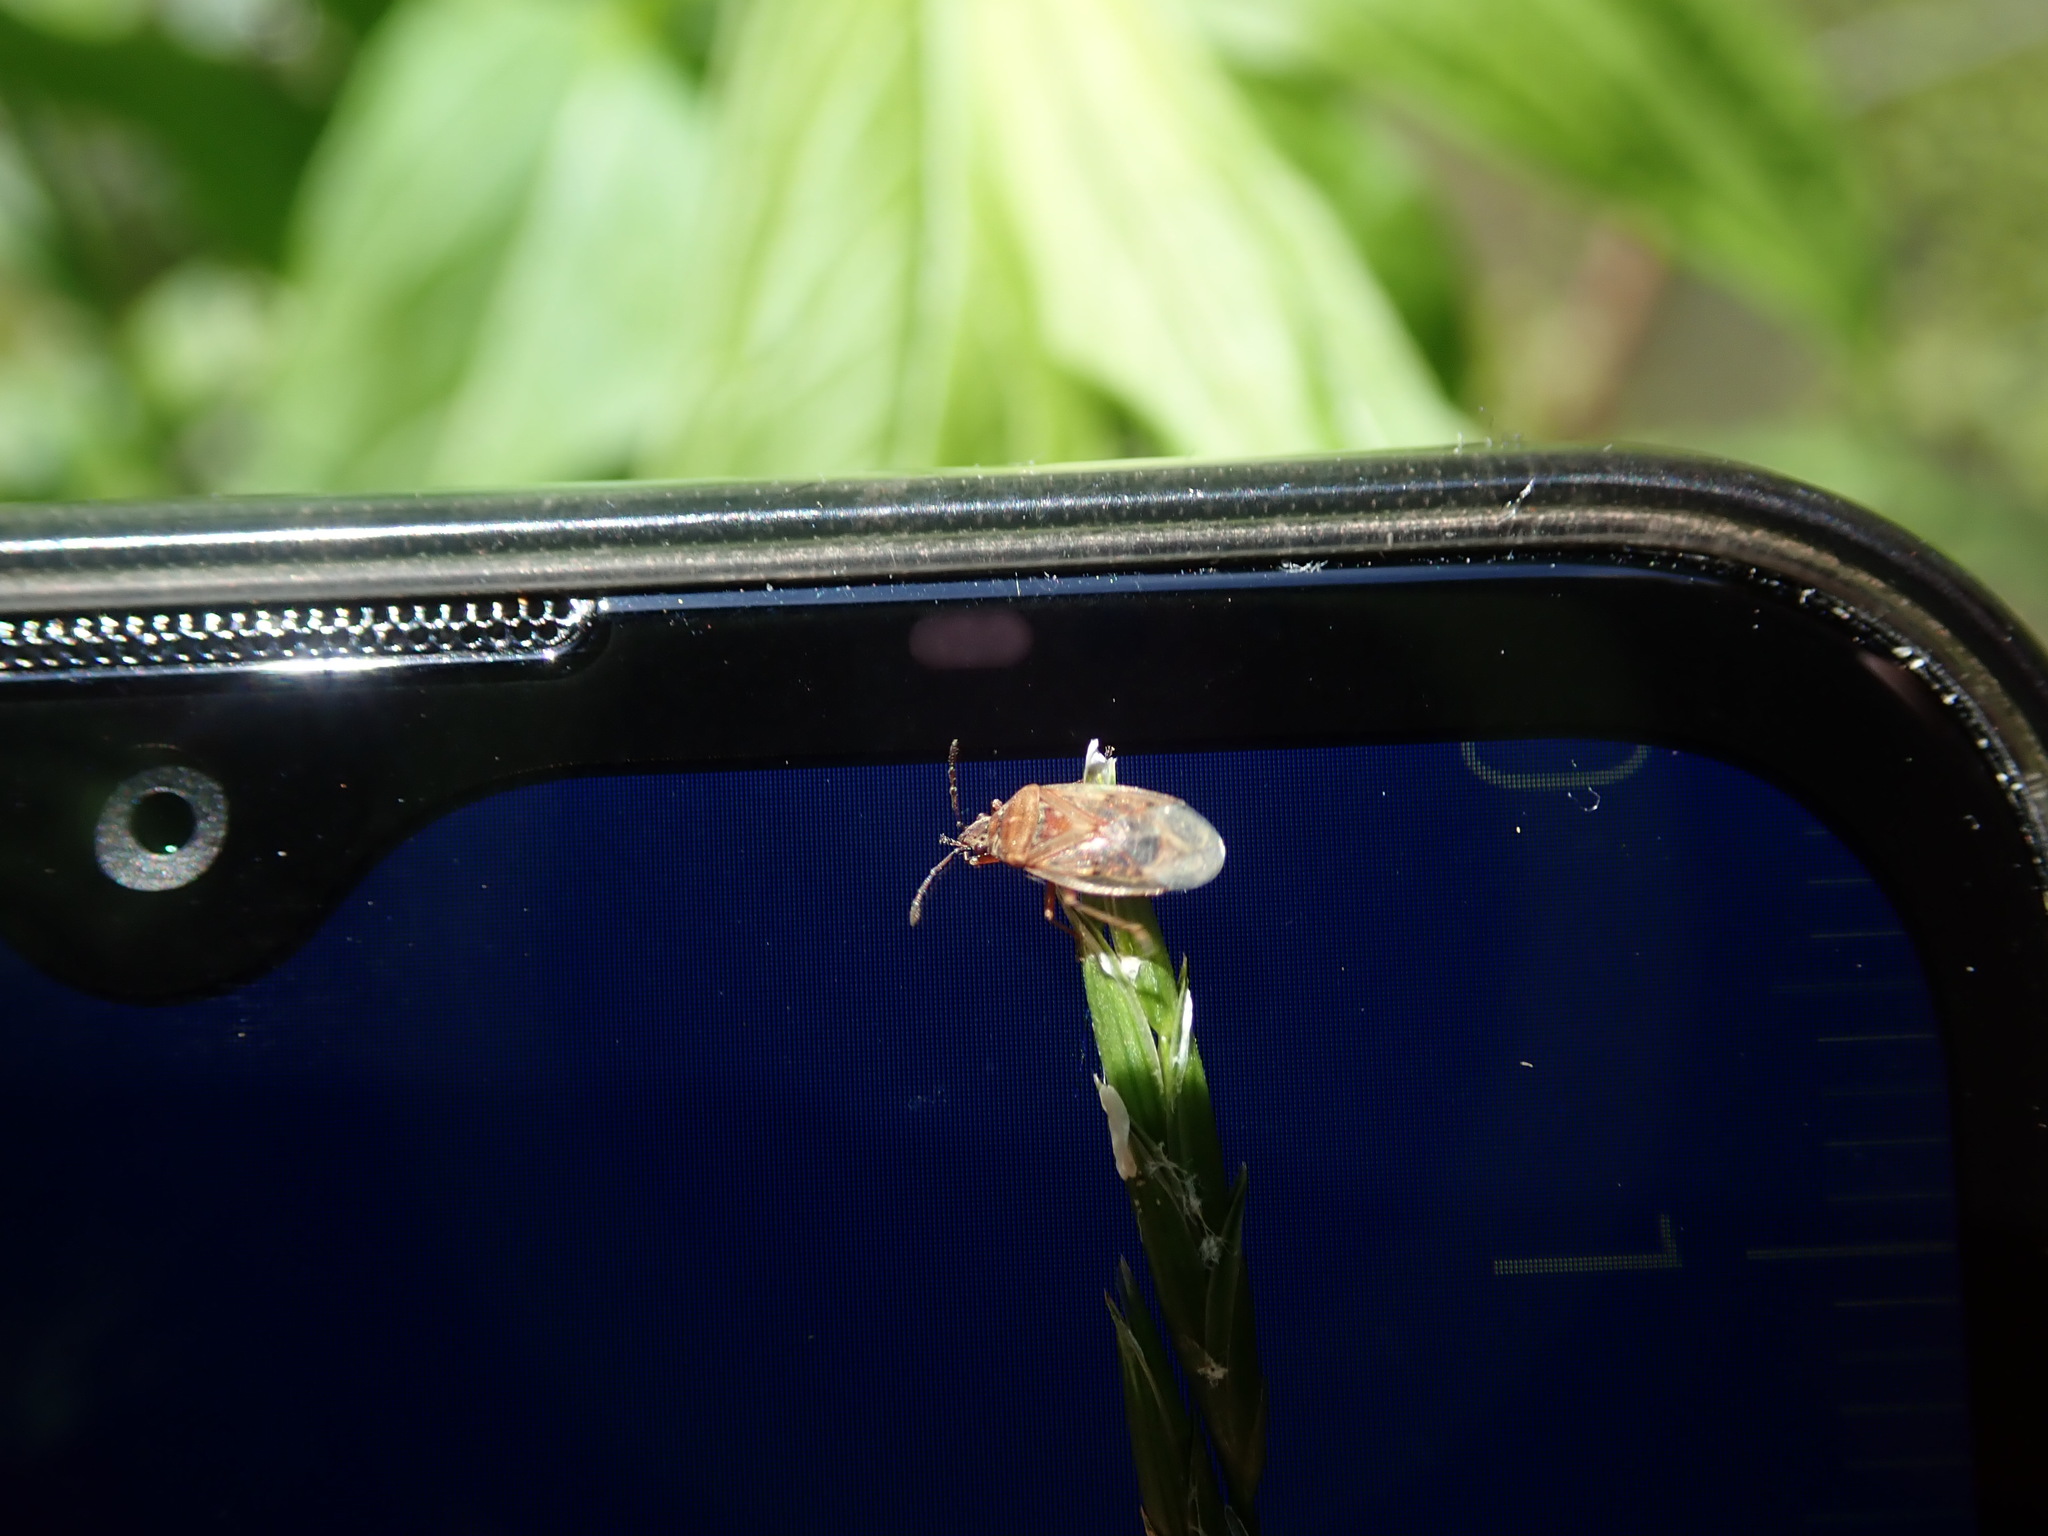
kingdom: Animalia
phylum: Arthropoda
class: Insecta
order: Hemiptera
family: Lygaeidae
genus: Kleidocerys
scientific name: Kleidocerys resedae
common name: Birch catkin bug
